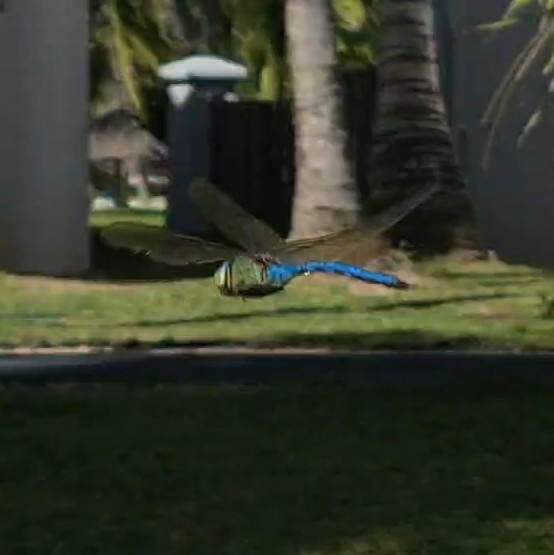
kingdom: Animalia
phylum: Arthropoda
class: Insecta
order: Odonata
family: Aeshnidae
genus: Anax
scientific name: Anax imperator
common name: Emperor dragonfly
